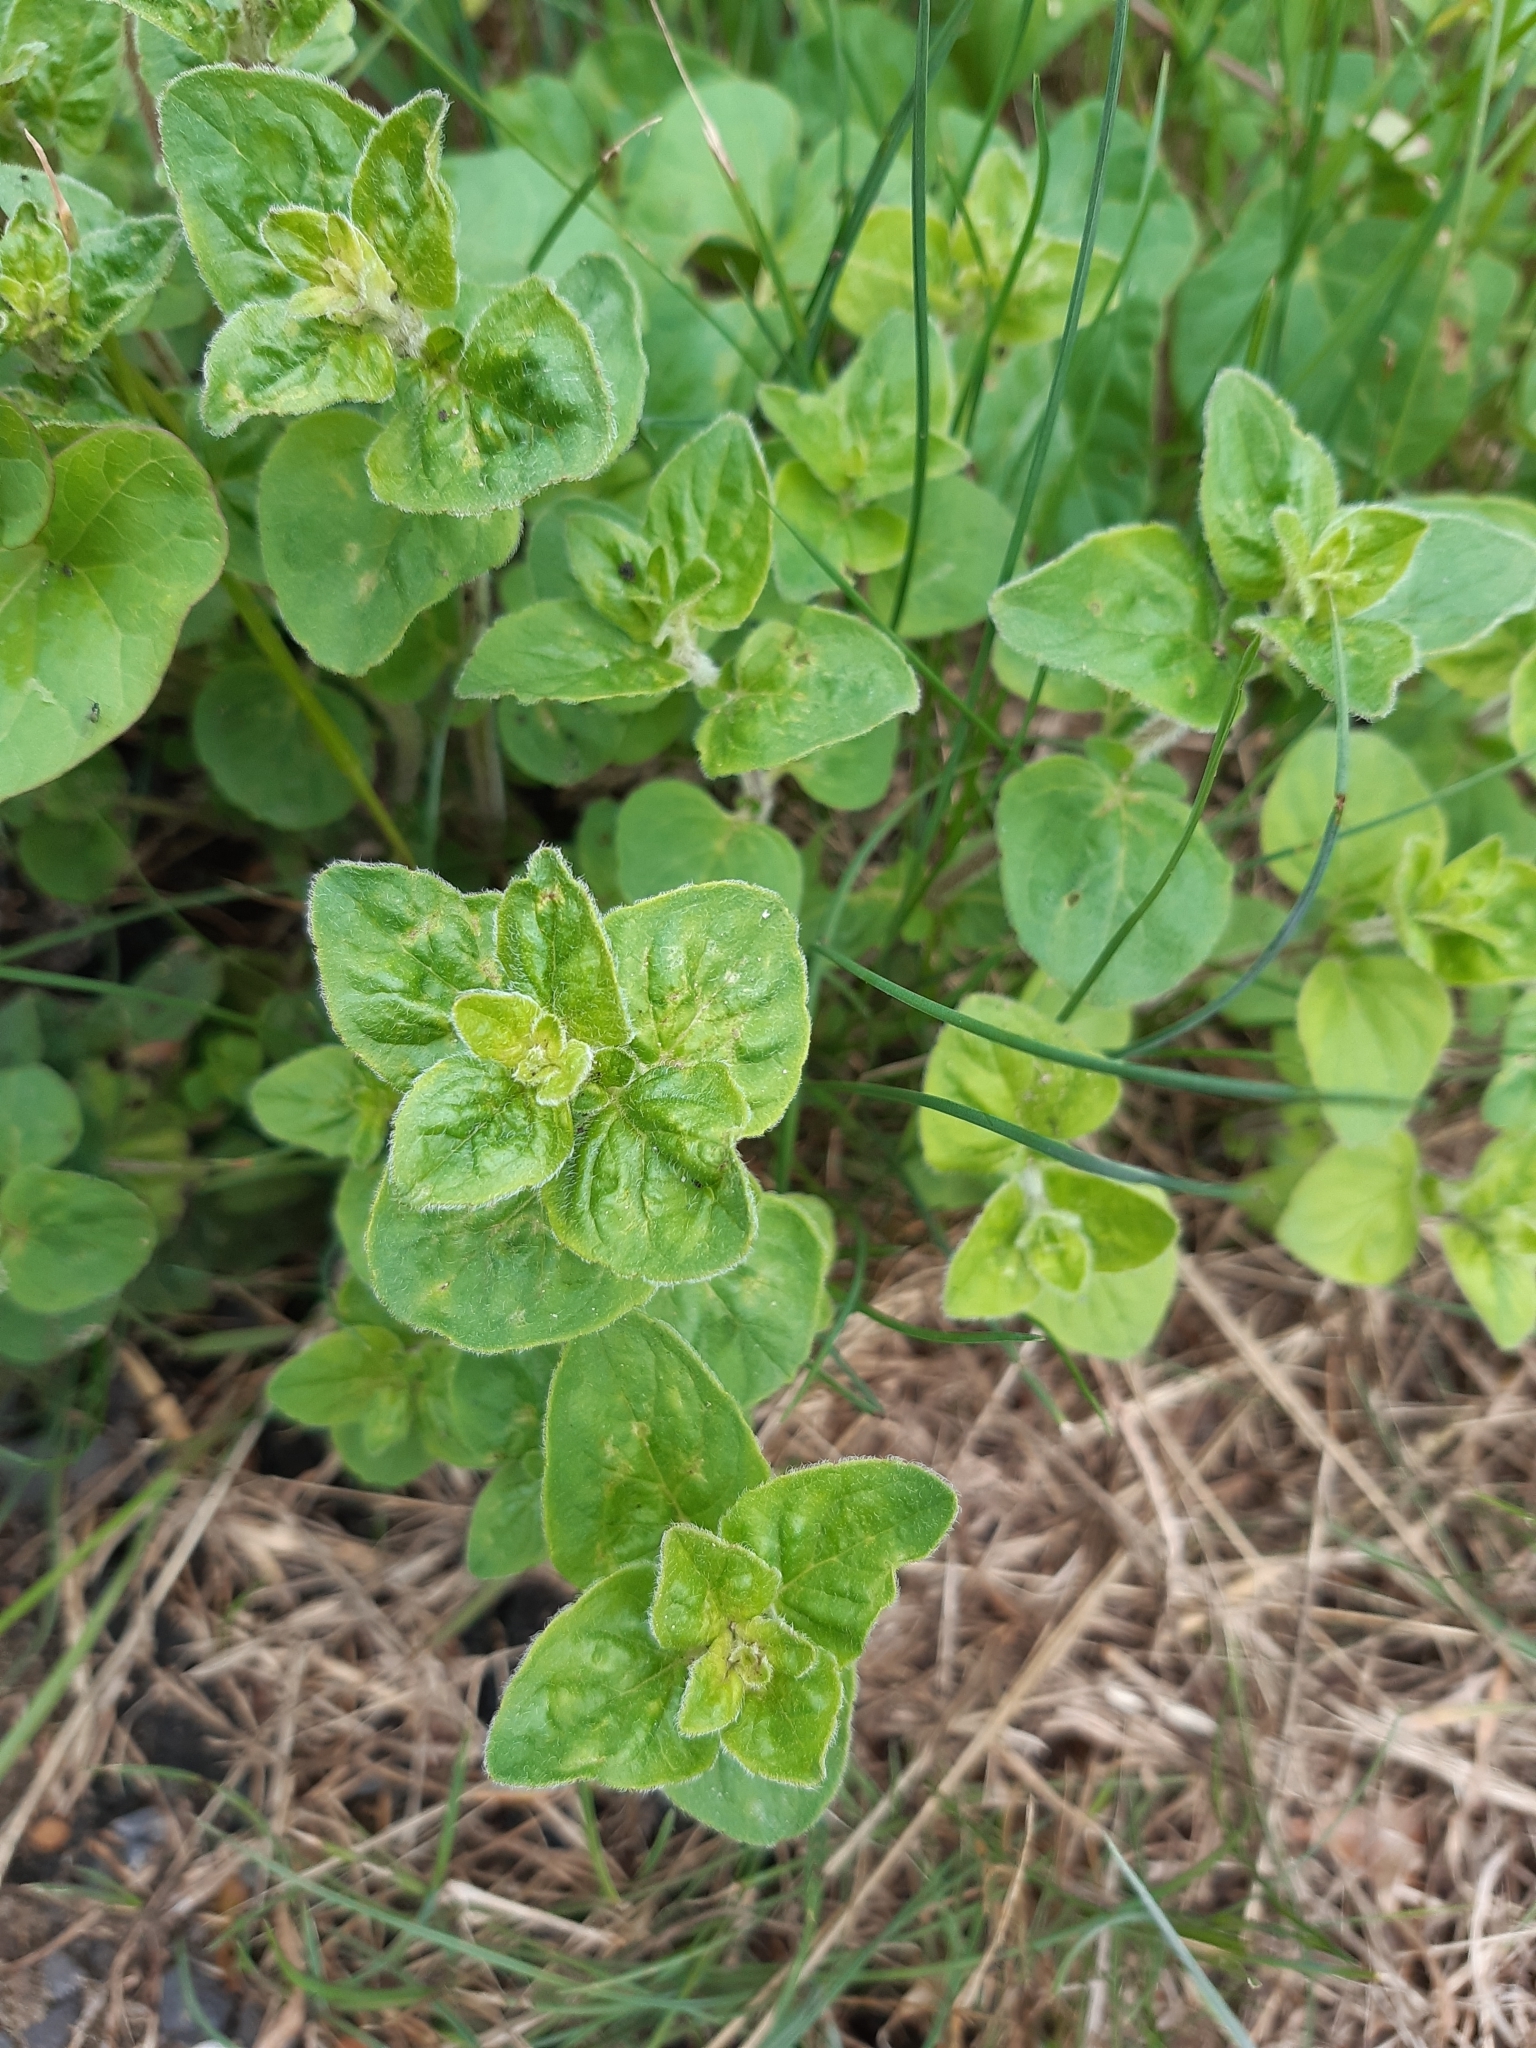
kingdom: Plantae
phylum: Tracheophyta
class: Magnoliopsida
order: Lamiales
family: Lamiaceae
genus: Origanum
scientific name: Origanum vulgare
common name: Wild marjoram
